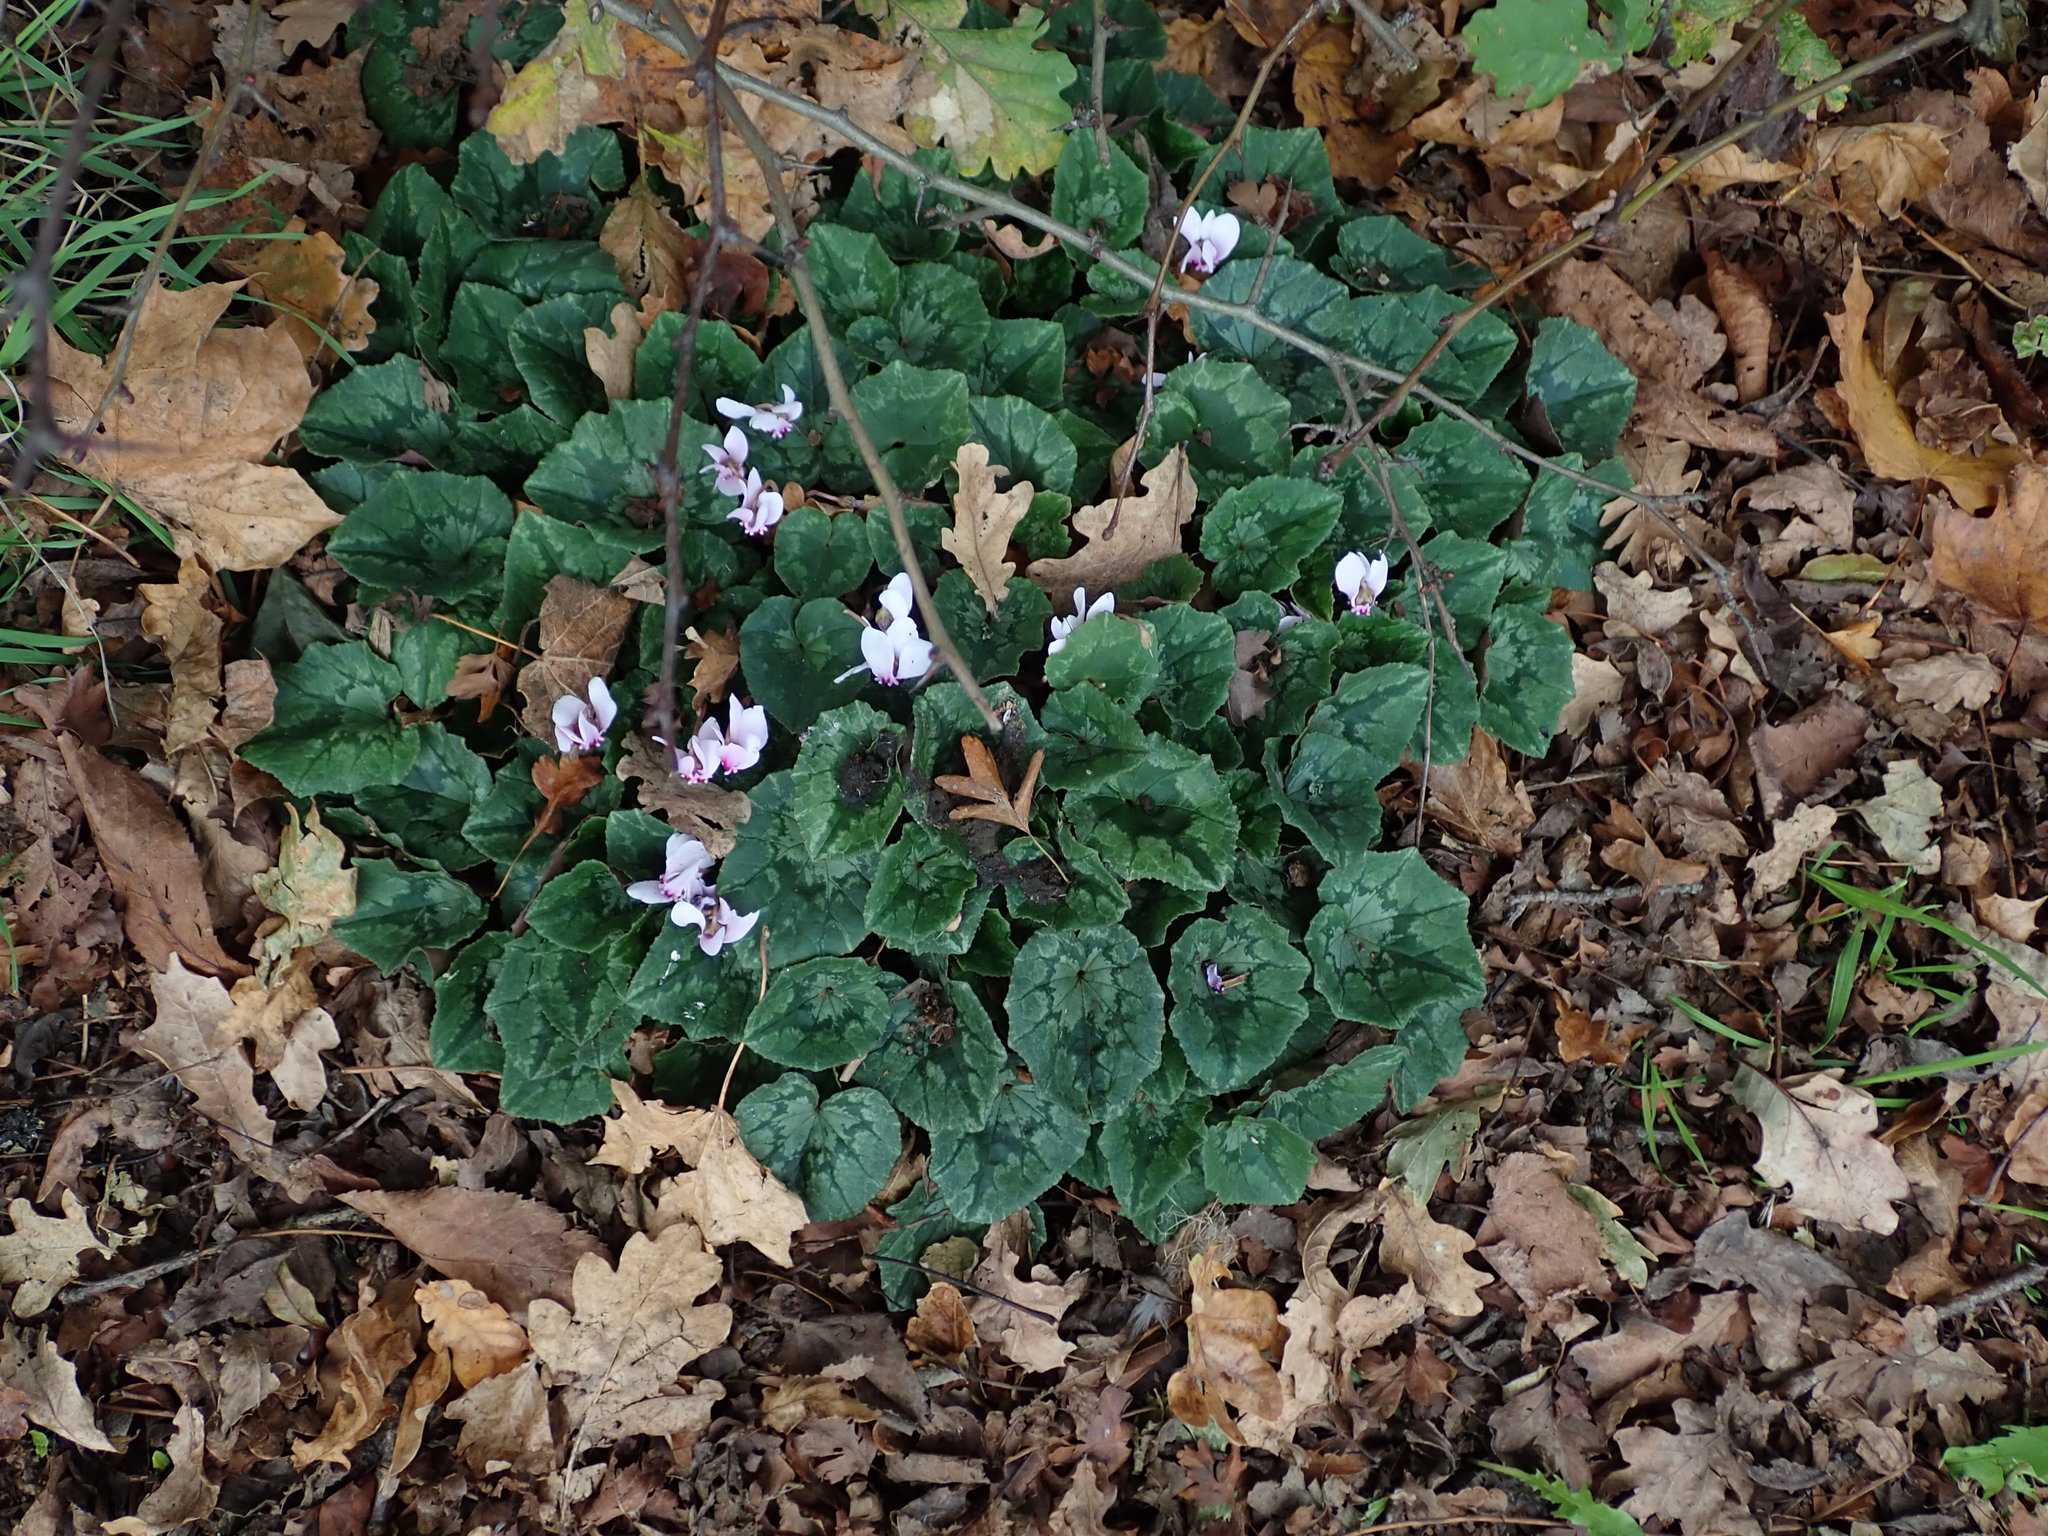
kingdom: Plantae
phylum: Tracheophyta
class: Magnoliopsida
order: Ericales
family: Primulaceae
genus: Cyclamen
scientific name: Cyclamen hederifolium
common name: Sowbread
